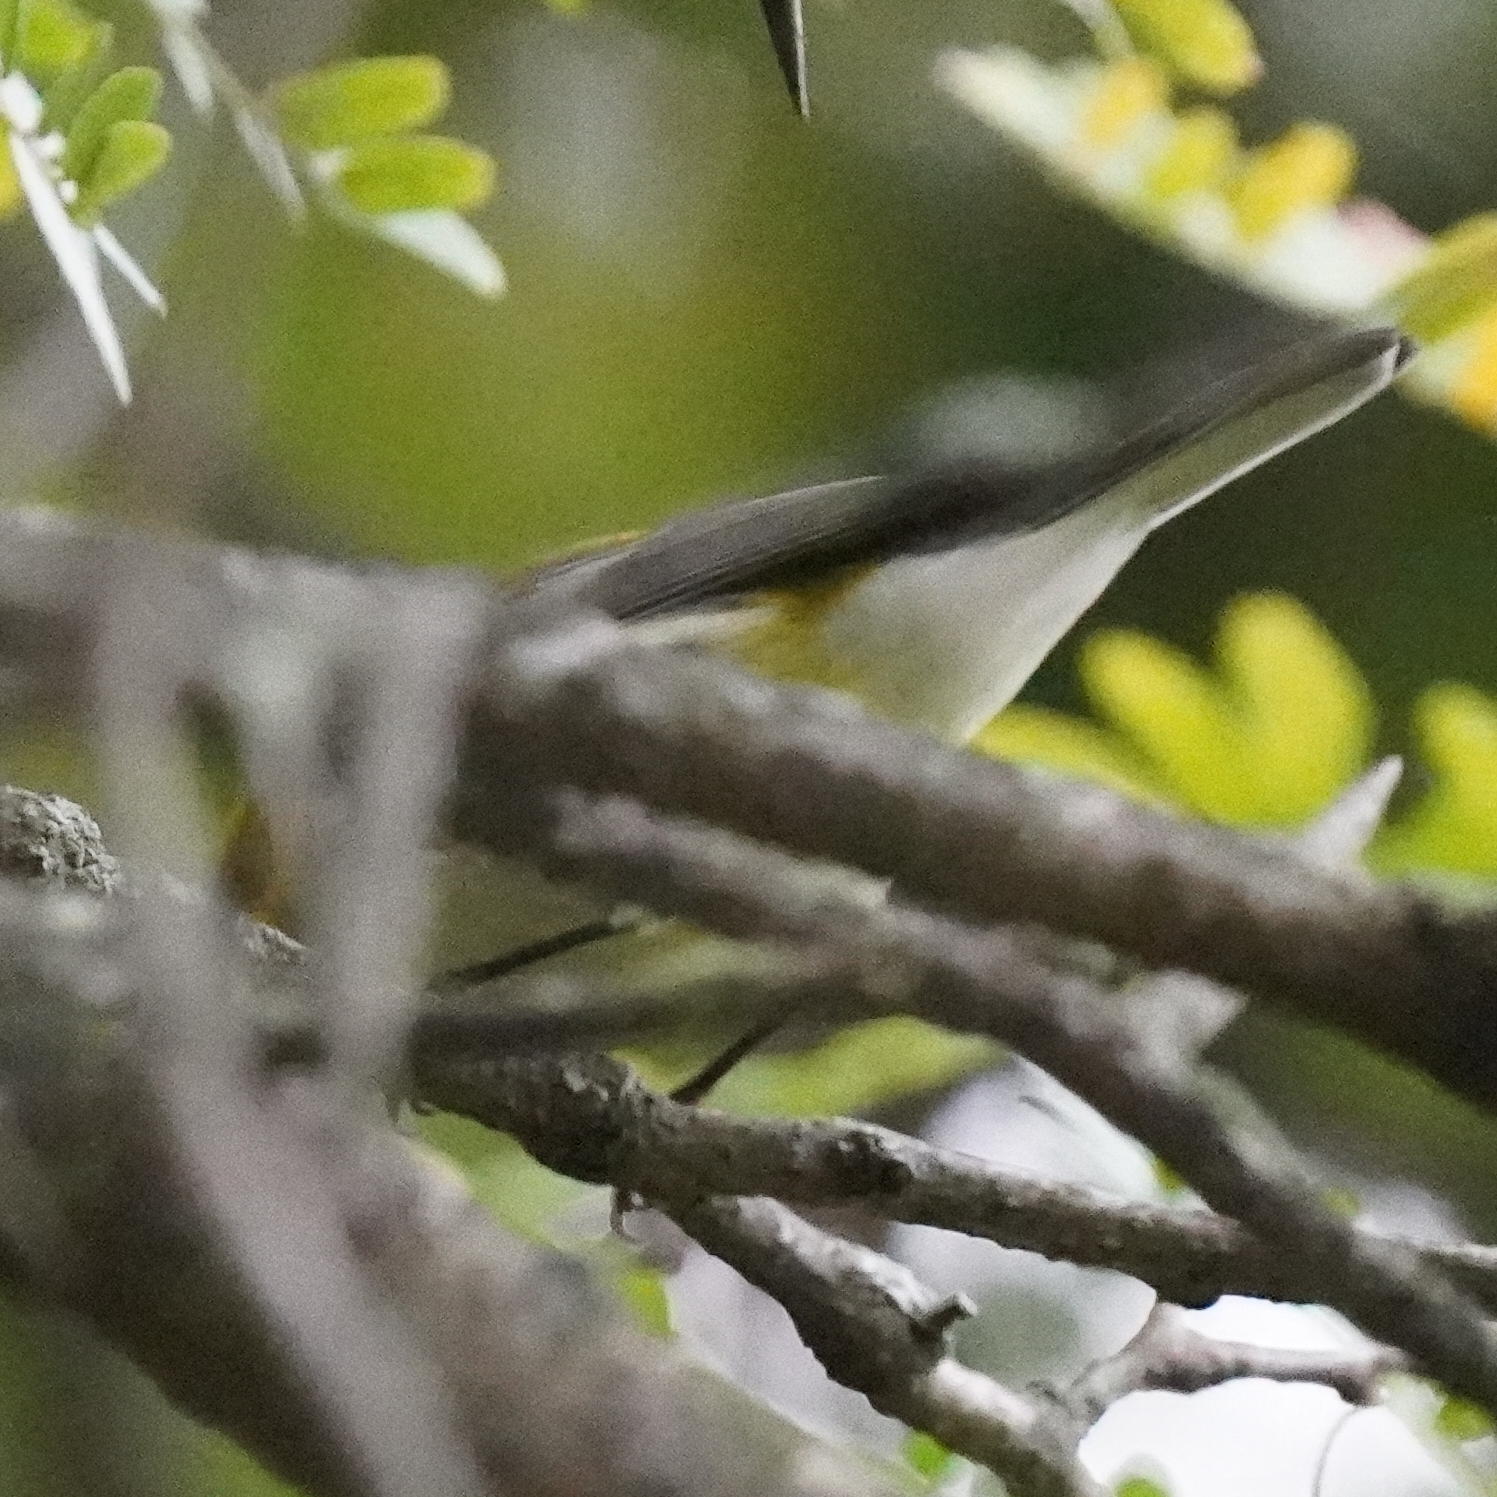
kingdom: Animalia
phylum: Chordata
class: Aves
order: Passeriformes
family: Parulidae
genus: Setophaga
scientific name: Setophaga virens
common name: Black-throated green warbler
